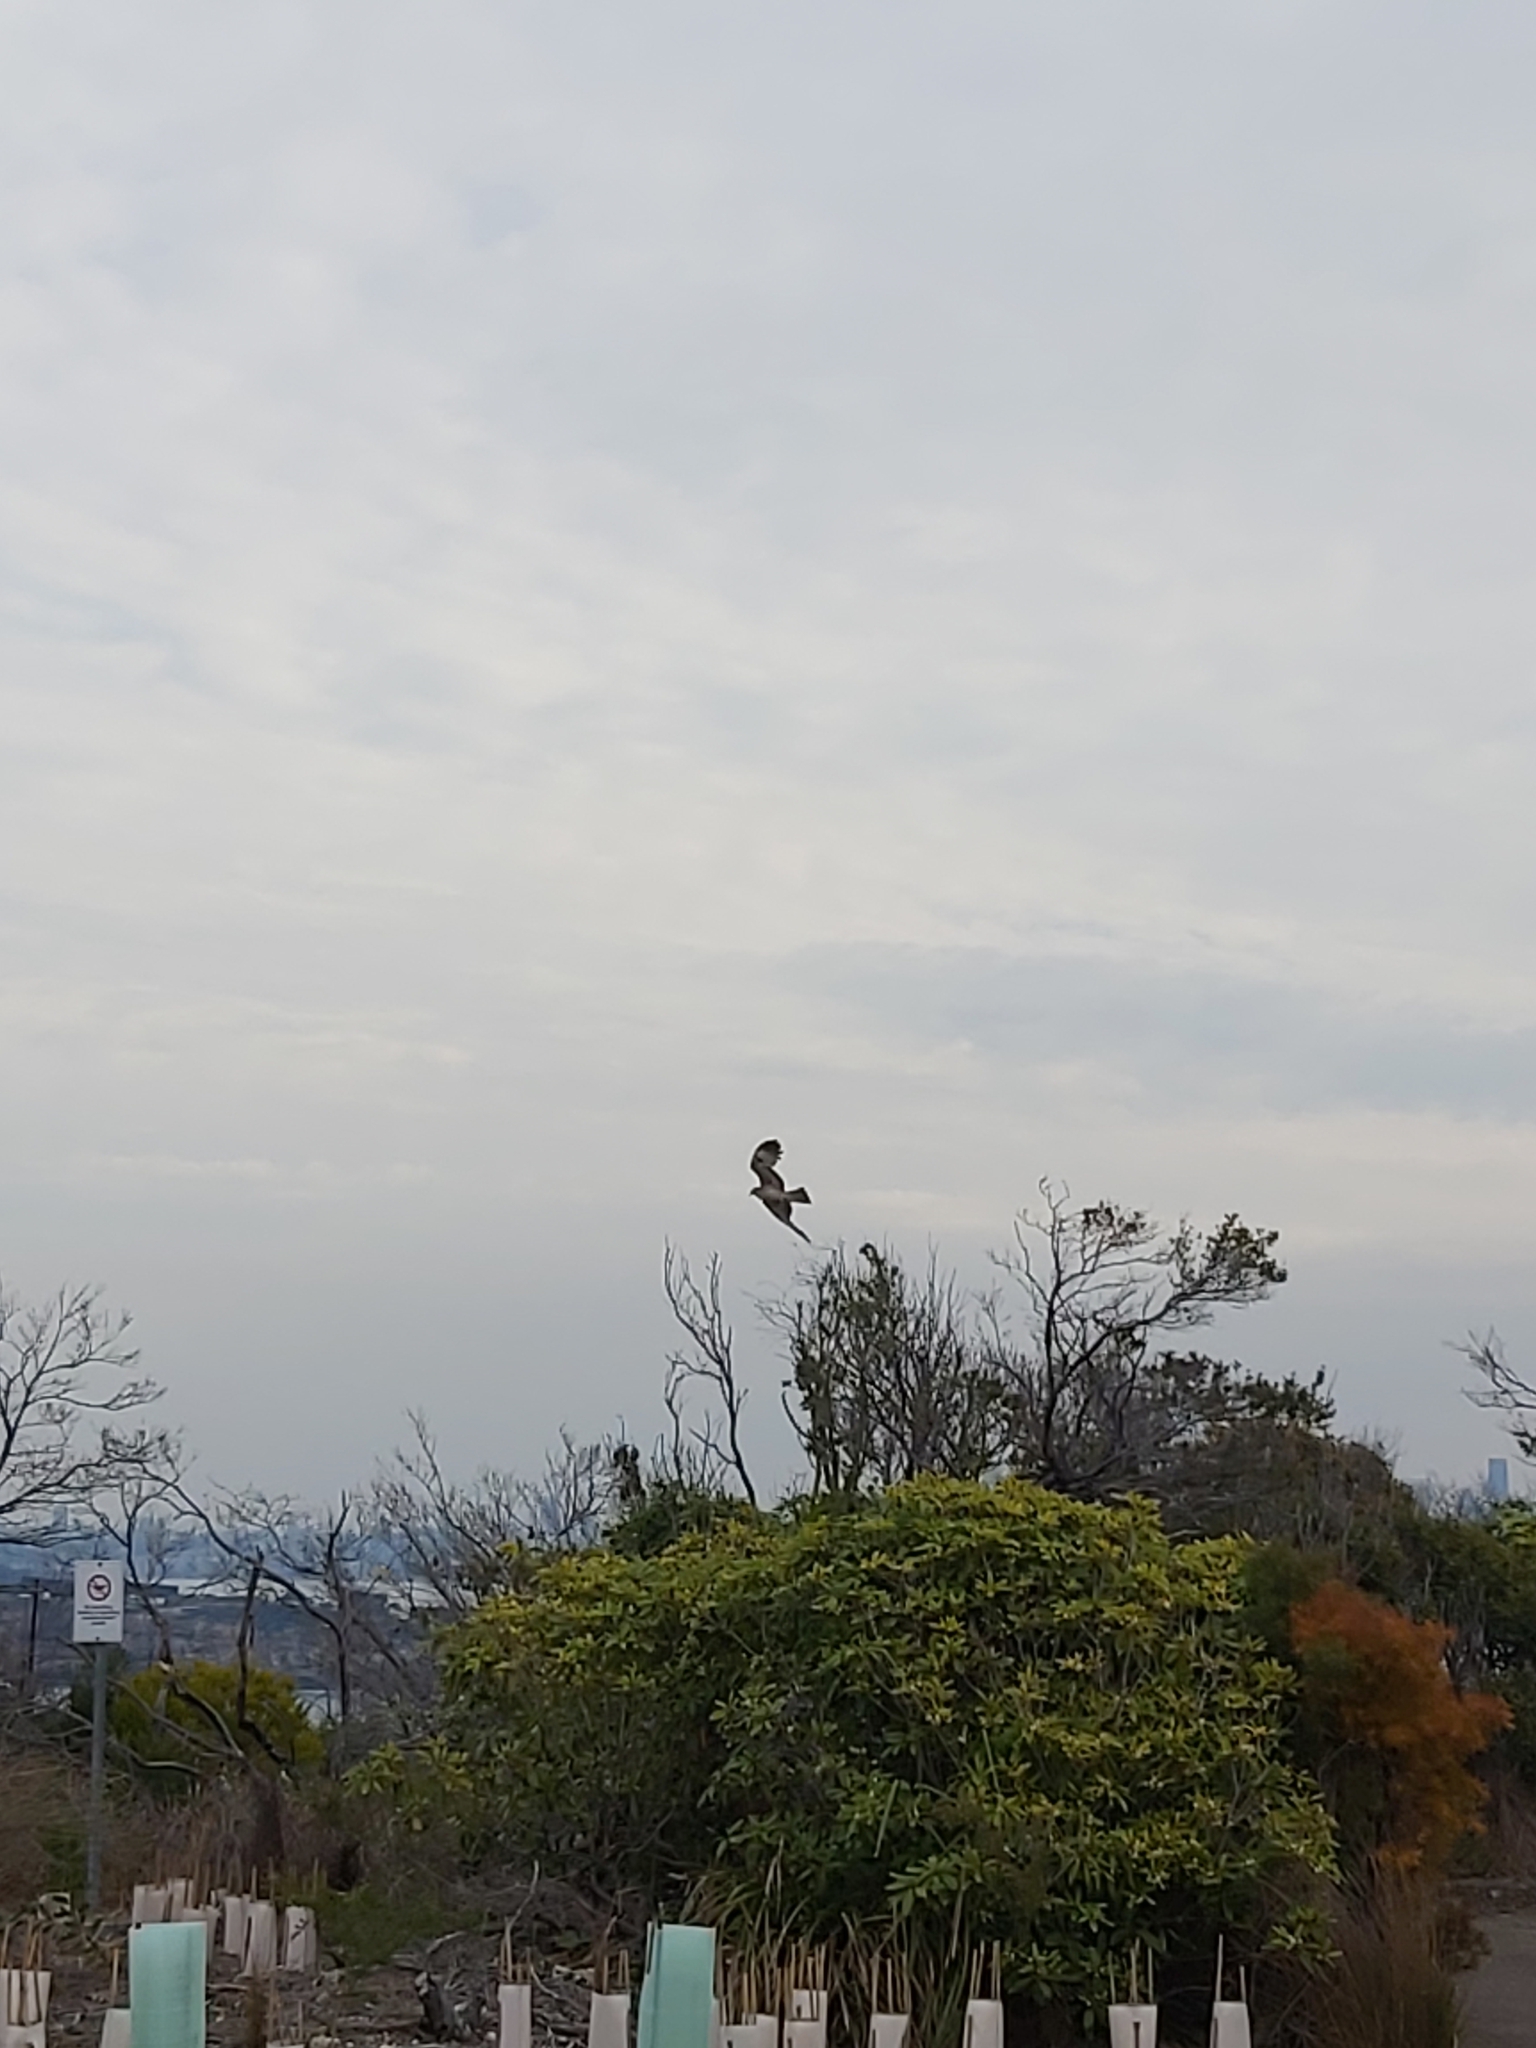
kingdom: Animalia
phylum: Chordata
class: Aves
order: Accipitriformes
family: Accipitridae
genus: Lophoictinia
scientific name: Lophoictinia isura
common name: Square-tailed kite
